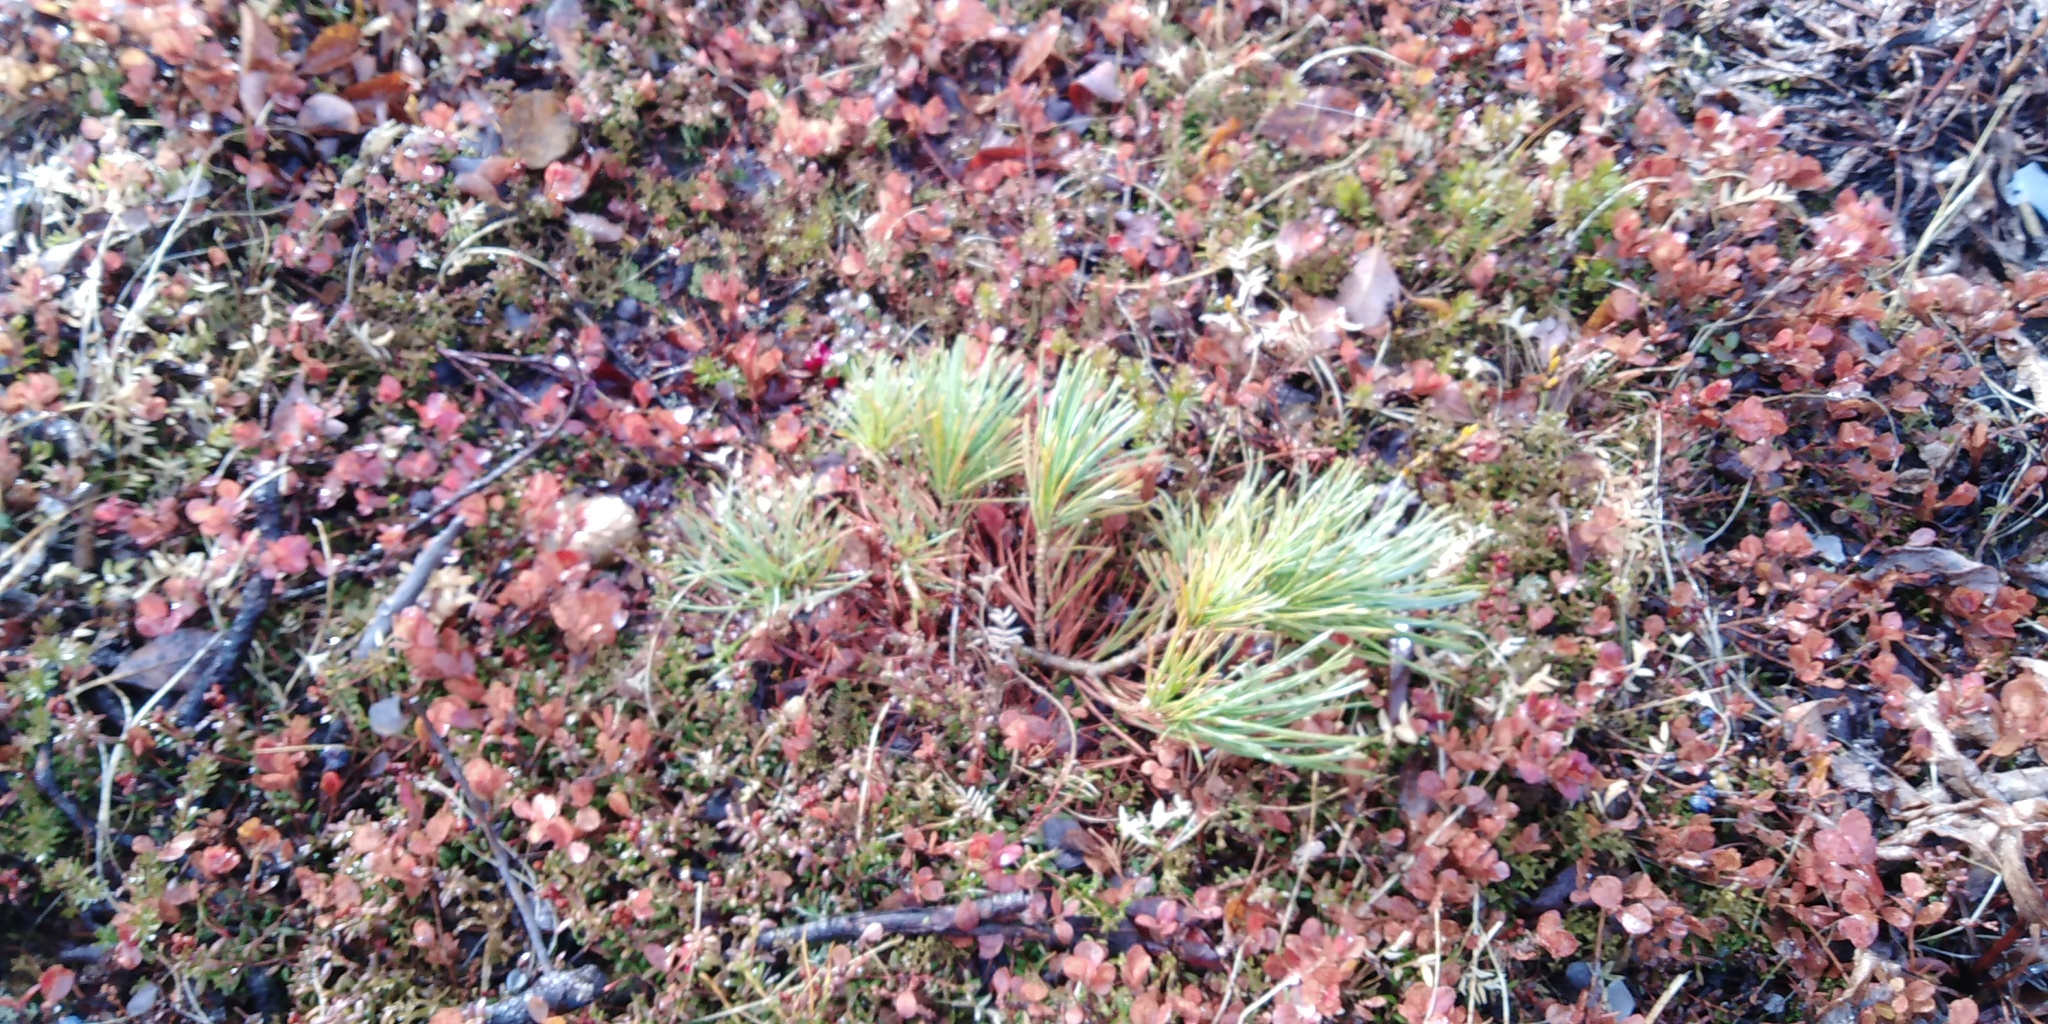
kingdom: Plantae
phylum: Tracheophyta
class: Pinopsida
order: Pinales
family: Pinaceae
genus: Pinus
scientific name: Pinus pumila
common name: Dwarf siberian pine
